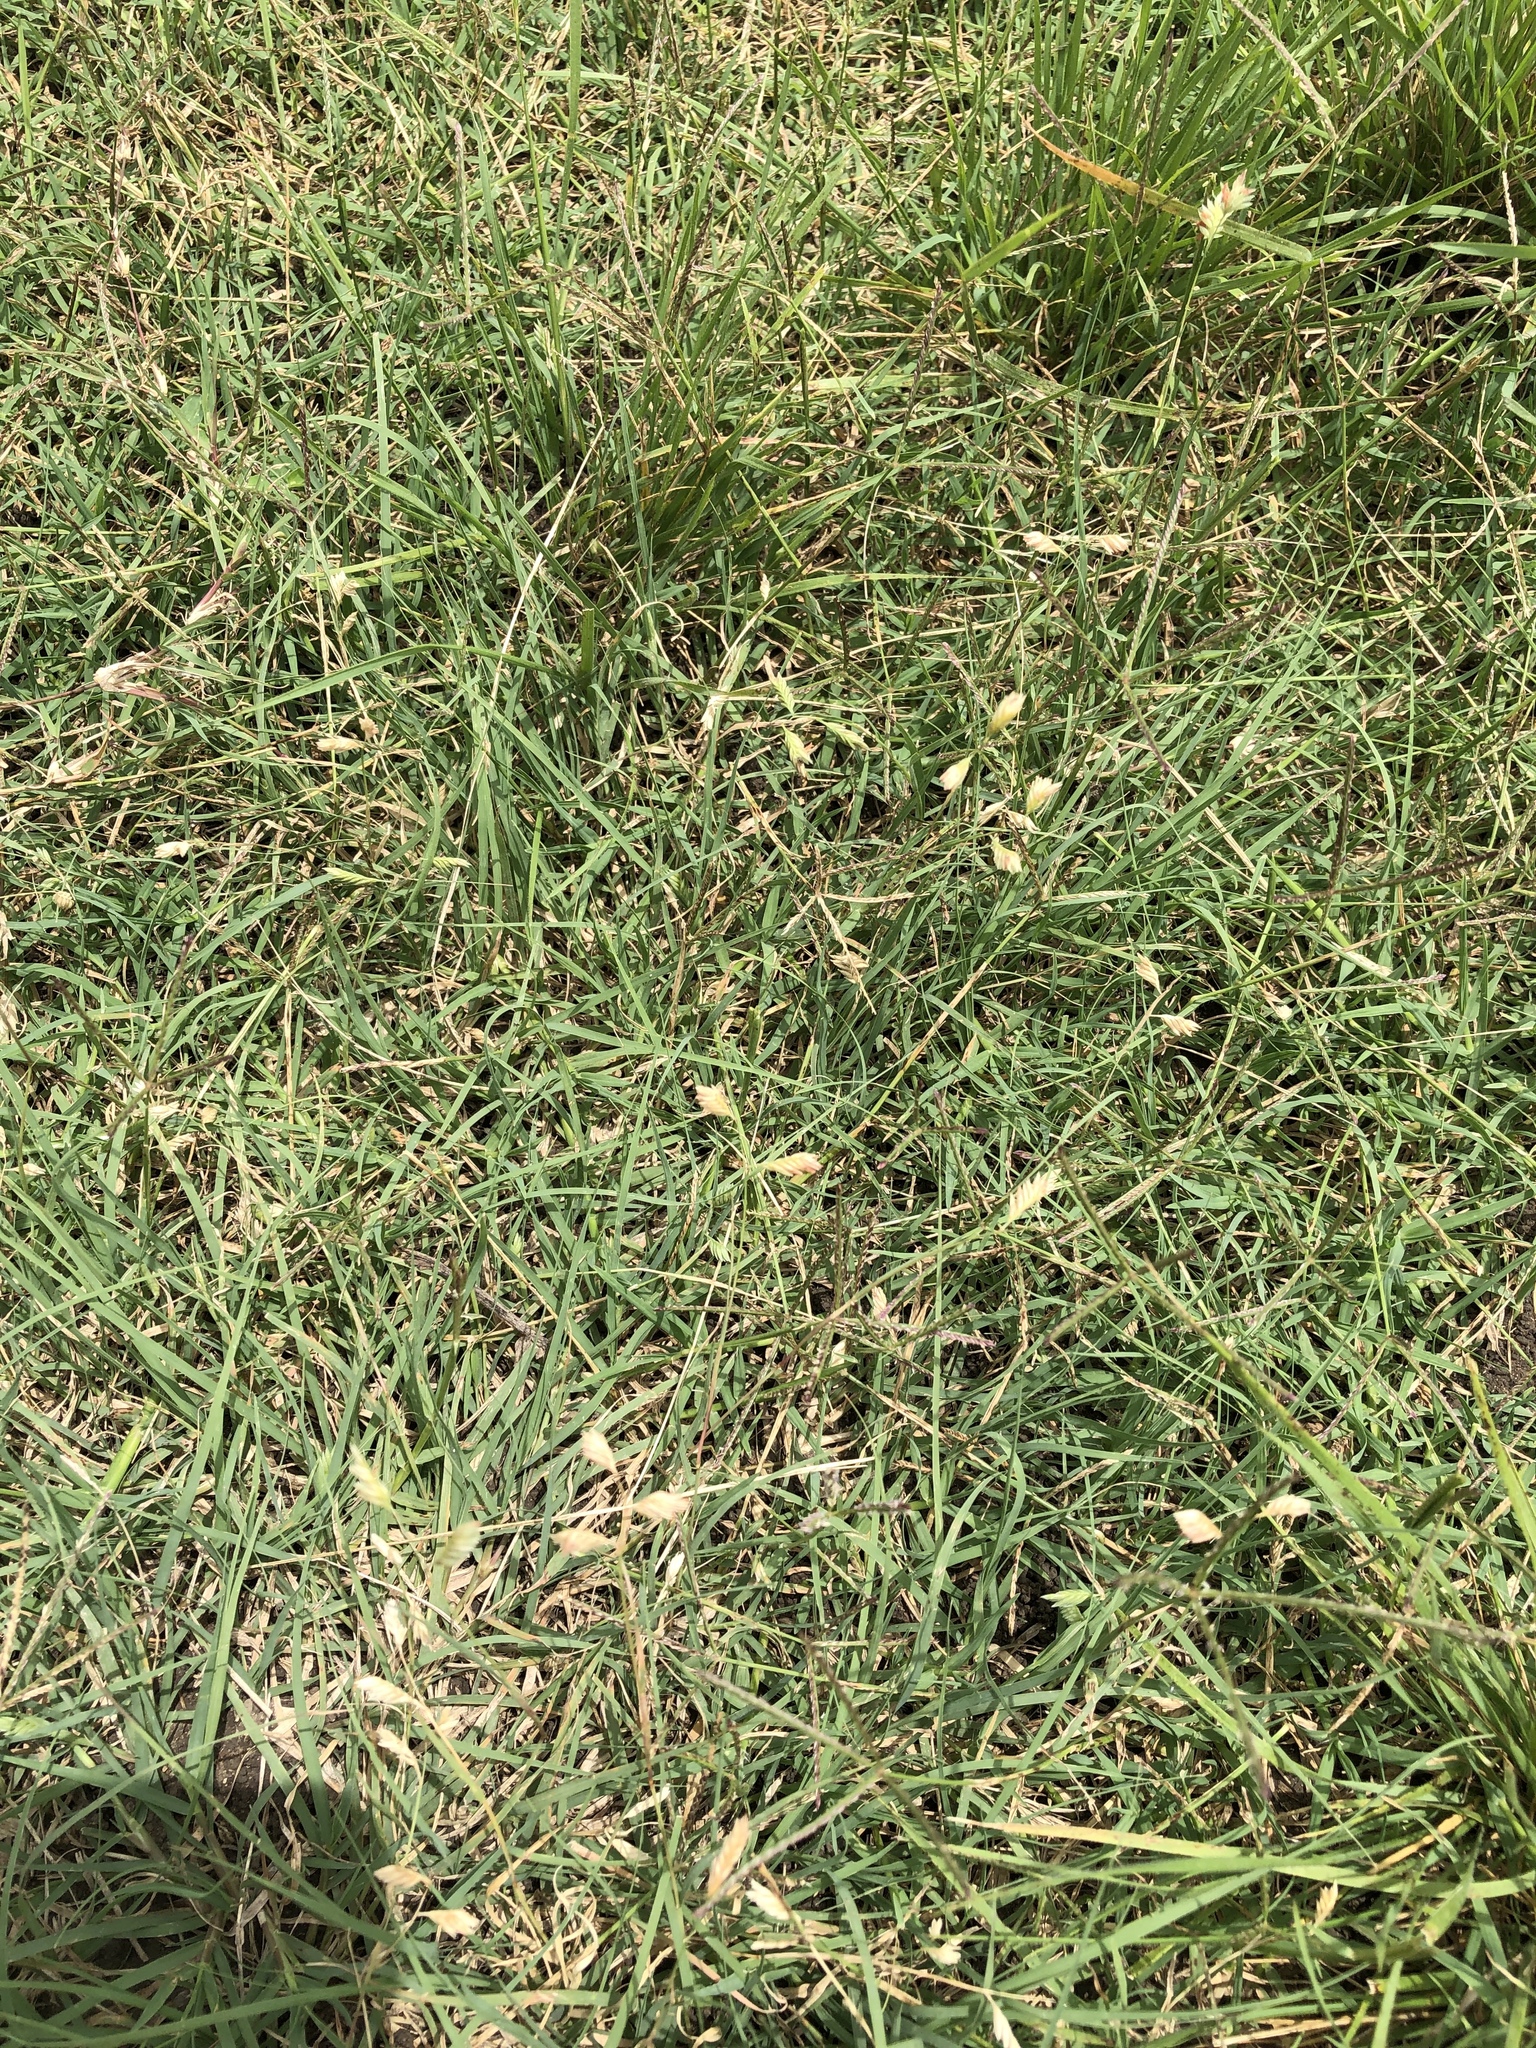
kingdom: Plantae
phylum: Tracheophyta
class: Liliopsida
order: Poales
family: Poaceae
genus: Bouteloua
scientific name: Bouteloua dactyloides
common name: Buffalo grass
